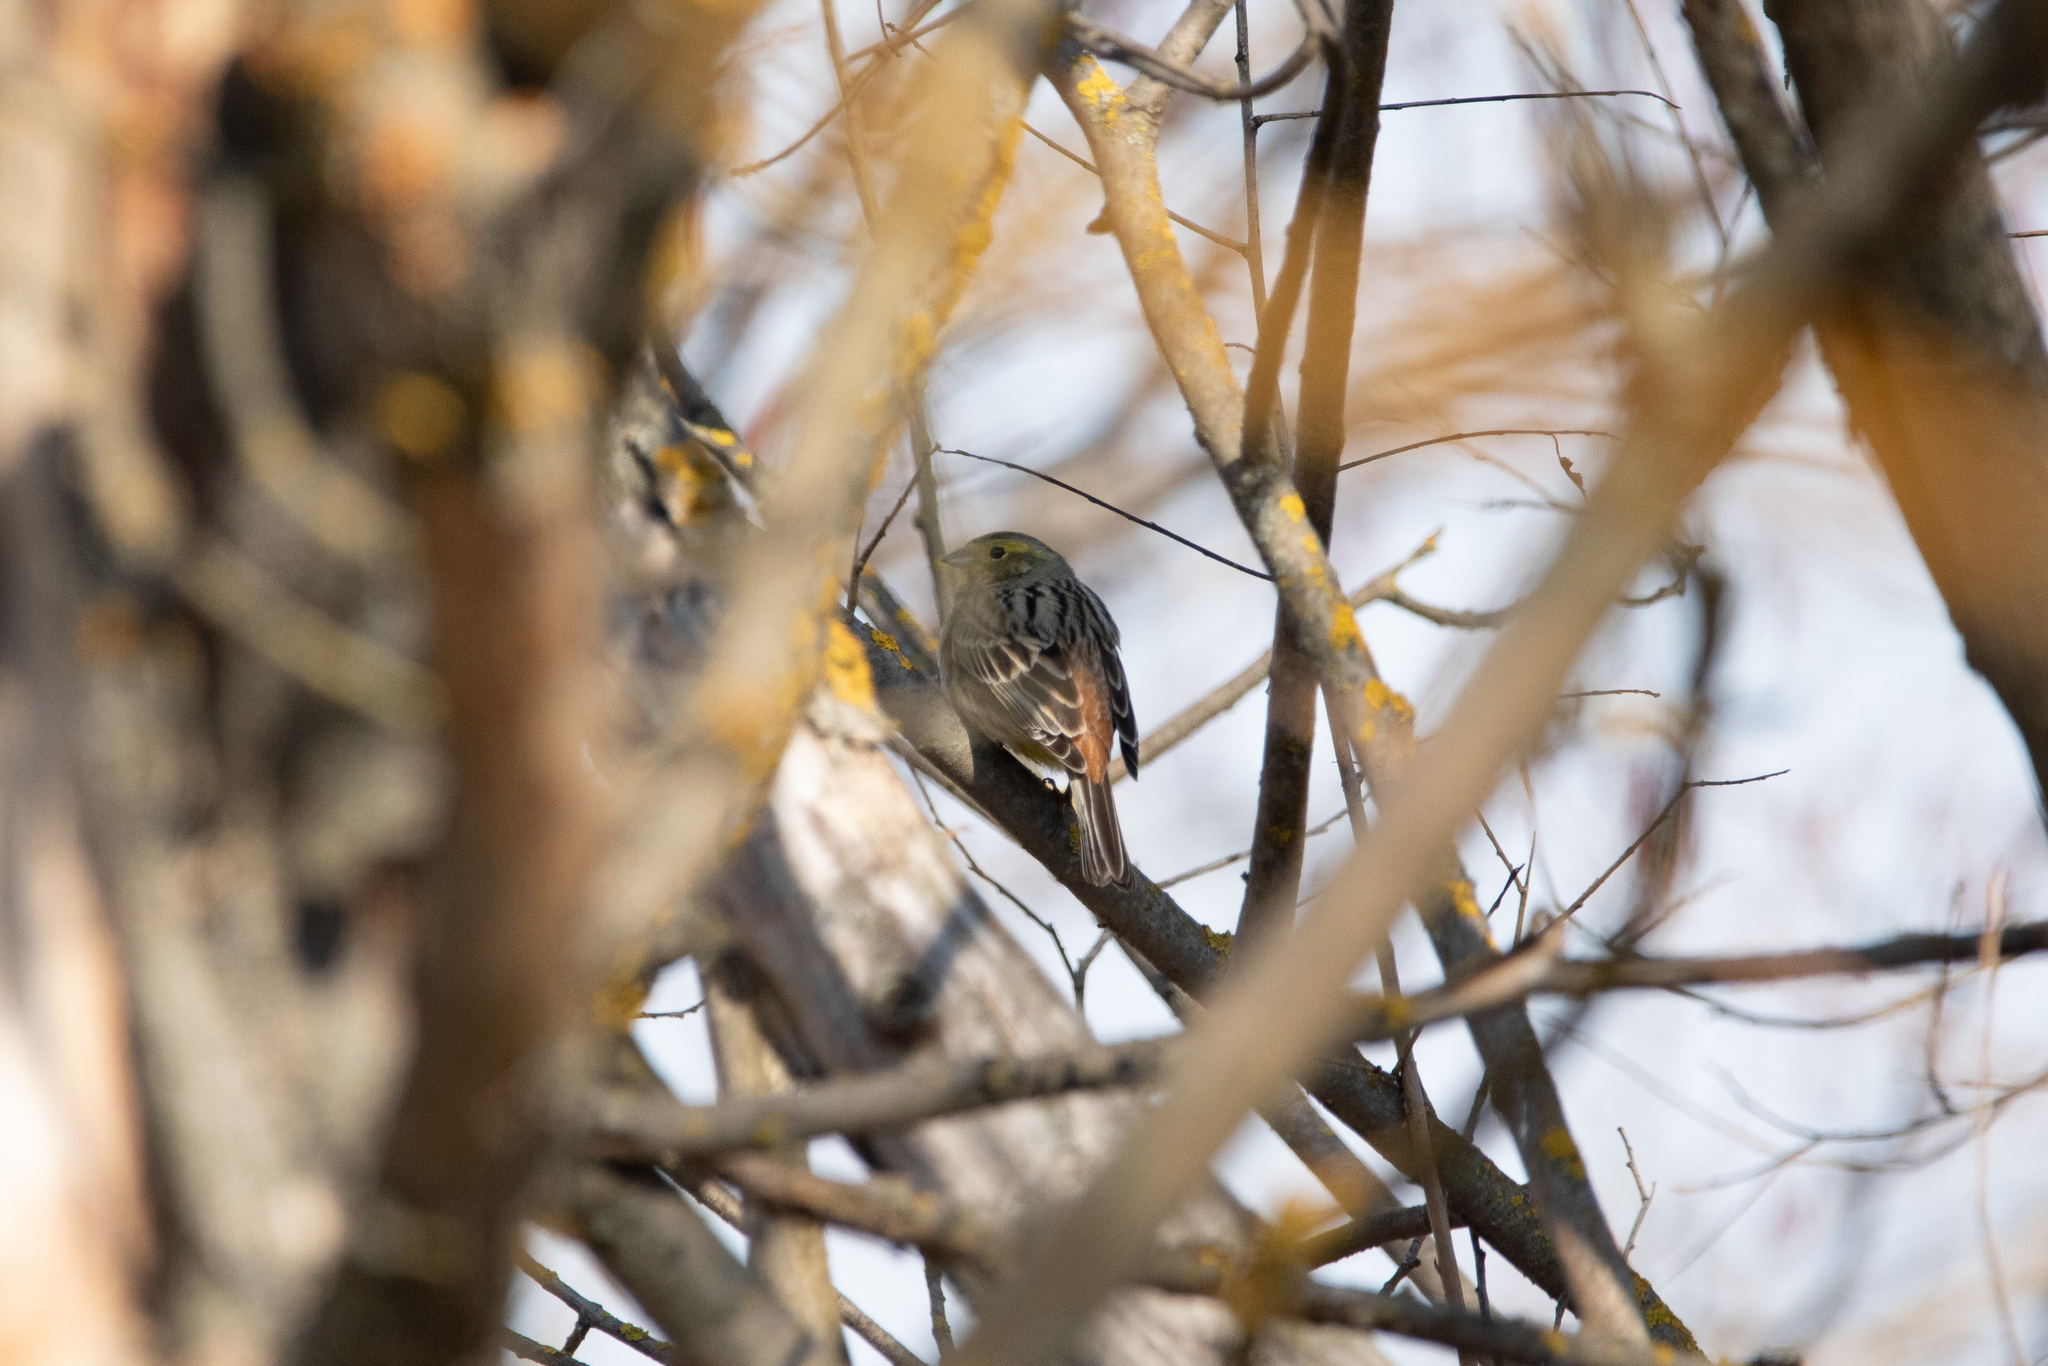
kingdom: Animalia
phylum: Chordata
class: Aves
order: Passeriformes
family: Emberizidae
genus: Emberiza
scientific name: Emberiza citrinella
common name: Yellowhammer
